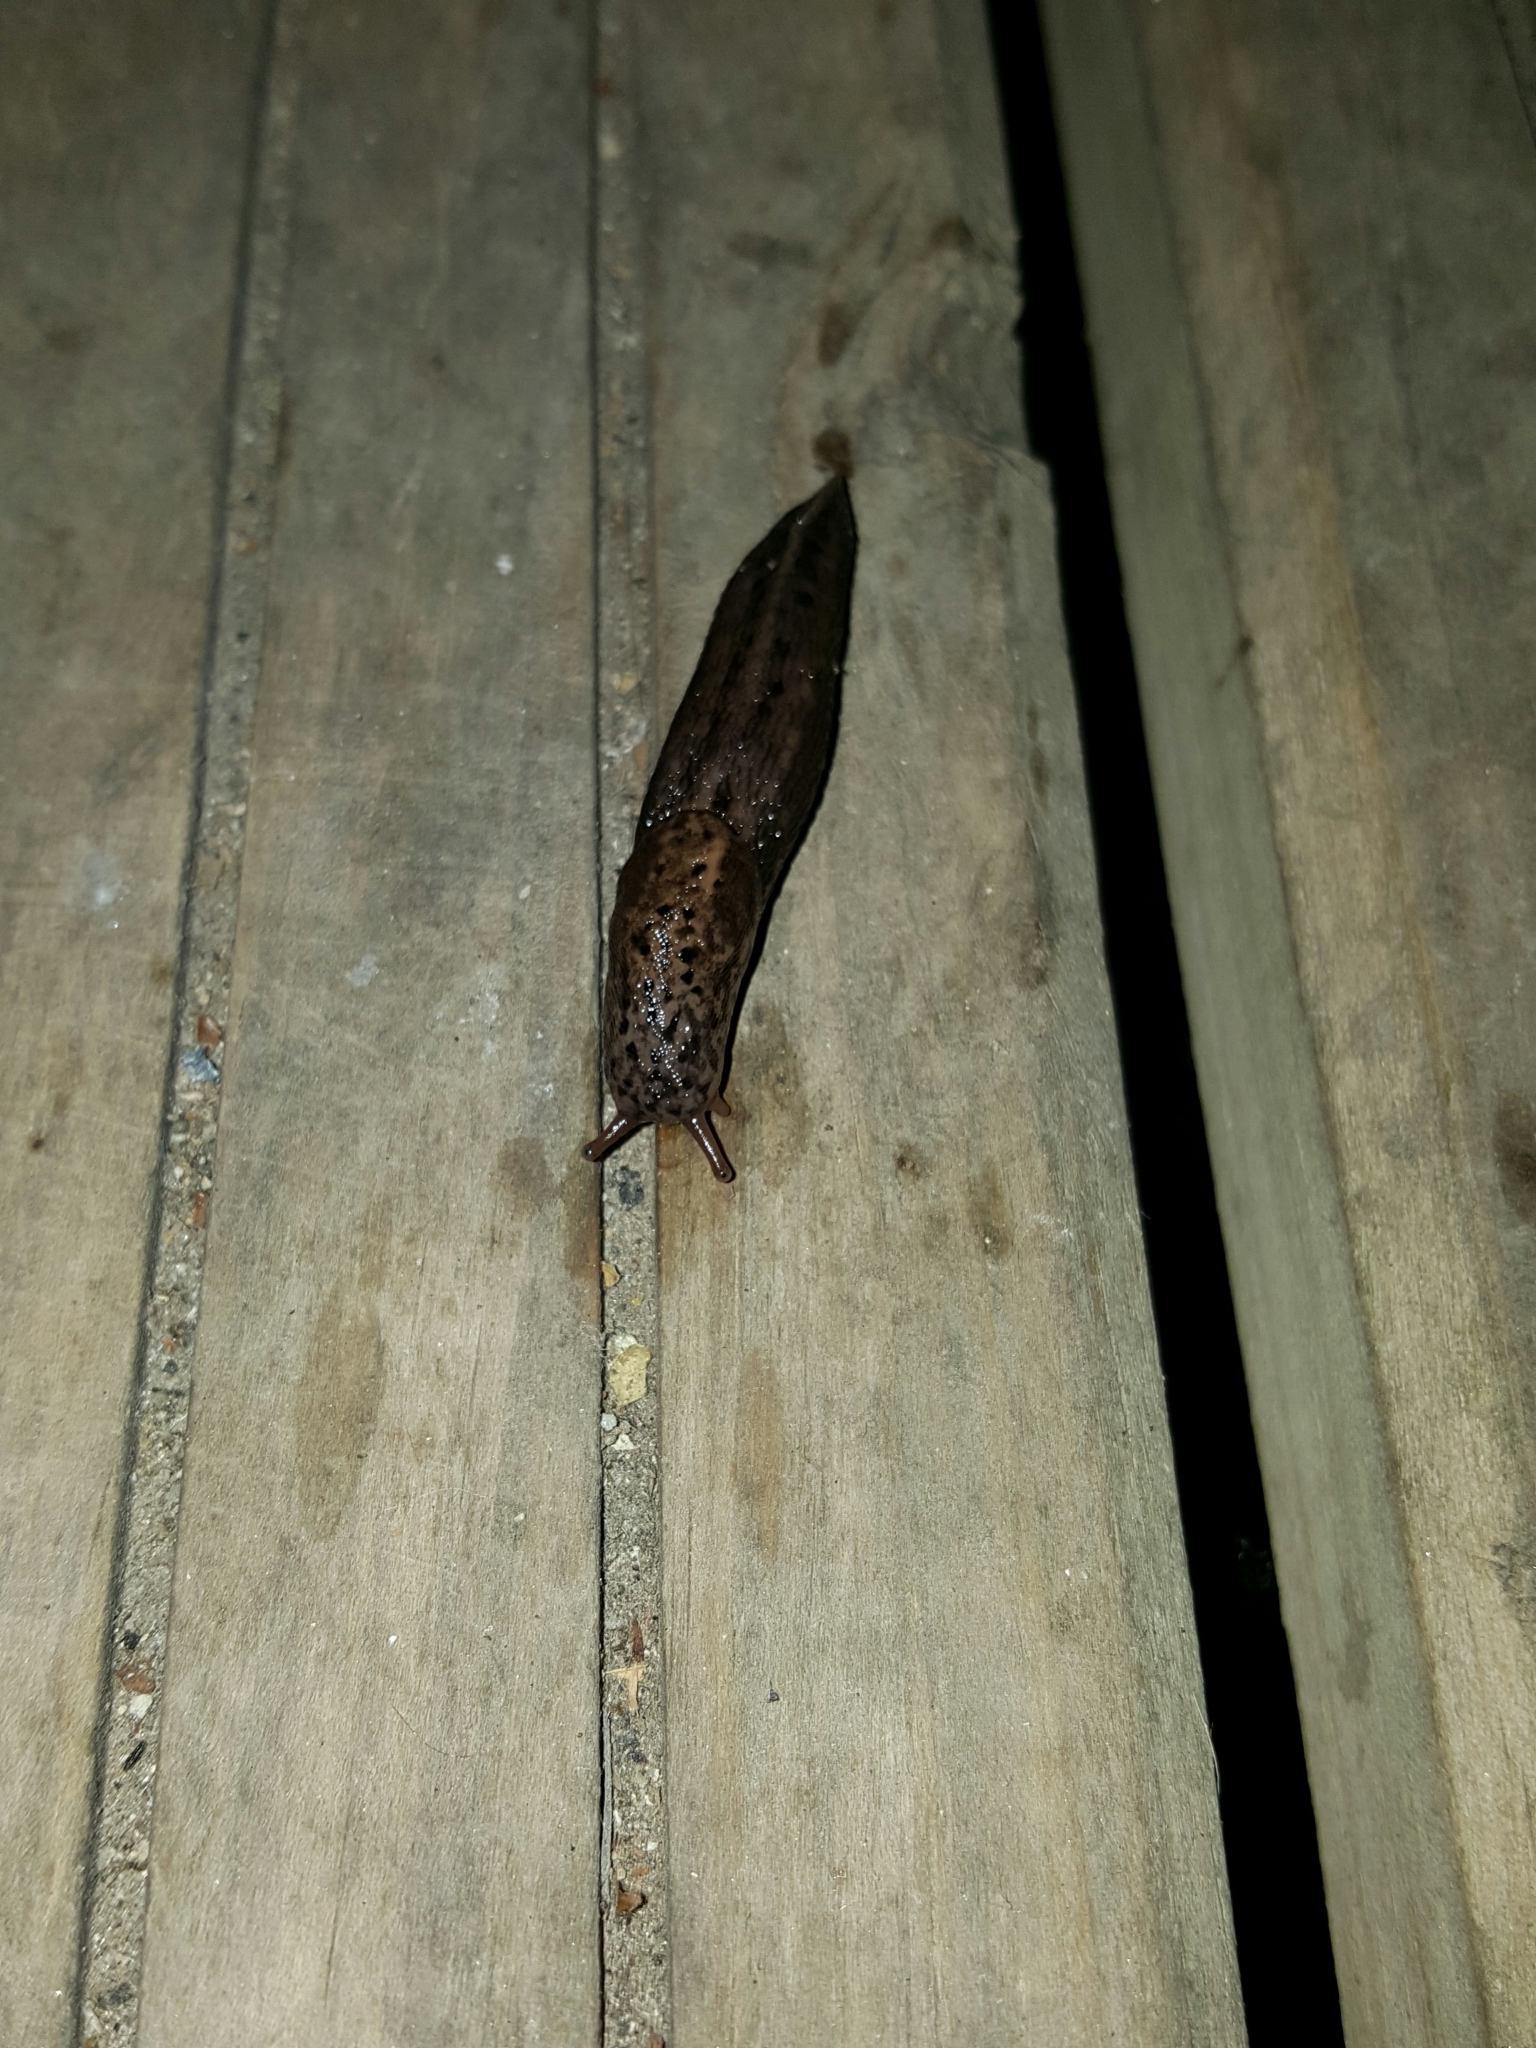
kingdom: Animalia
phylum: Mollusca
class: Gastropoda
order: Stylommatophora
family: Limacidae
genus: Limax
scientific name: Limax maximus
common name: Great grey slug
